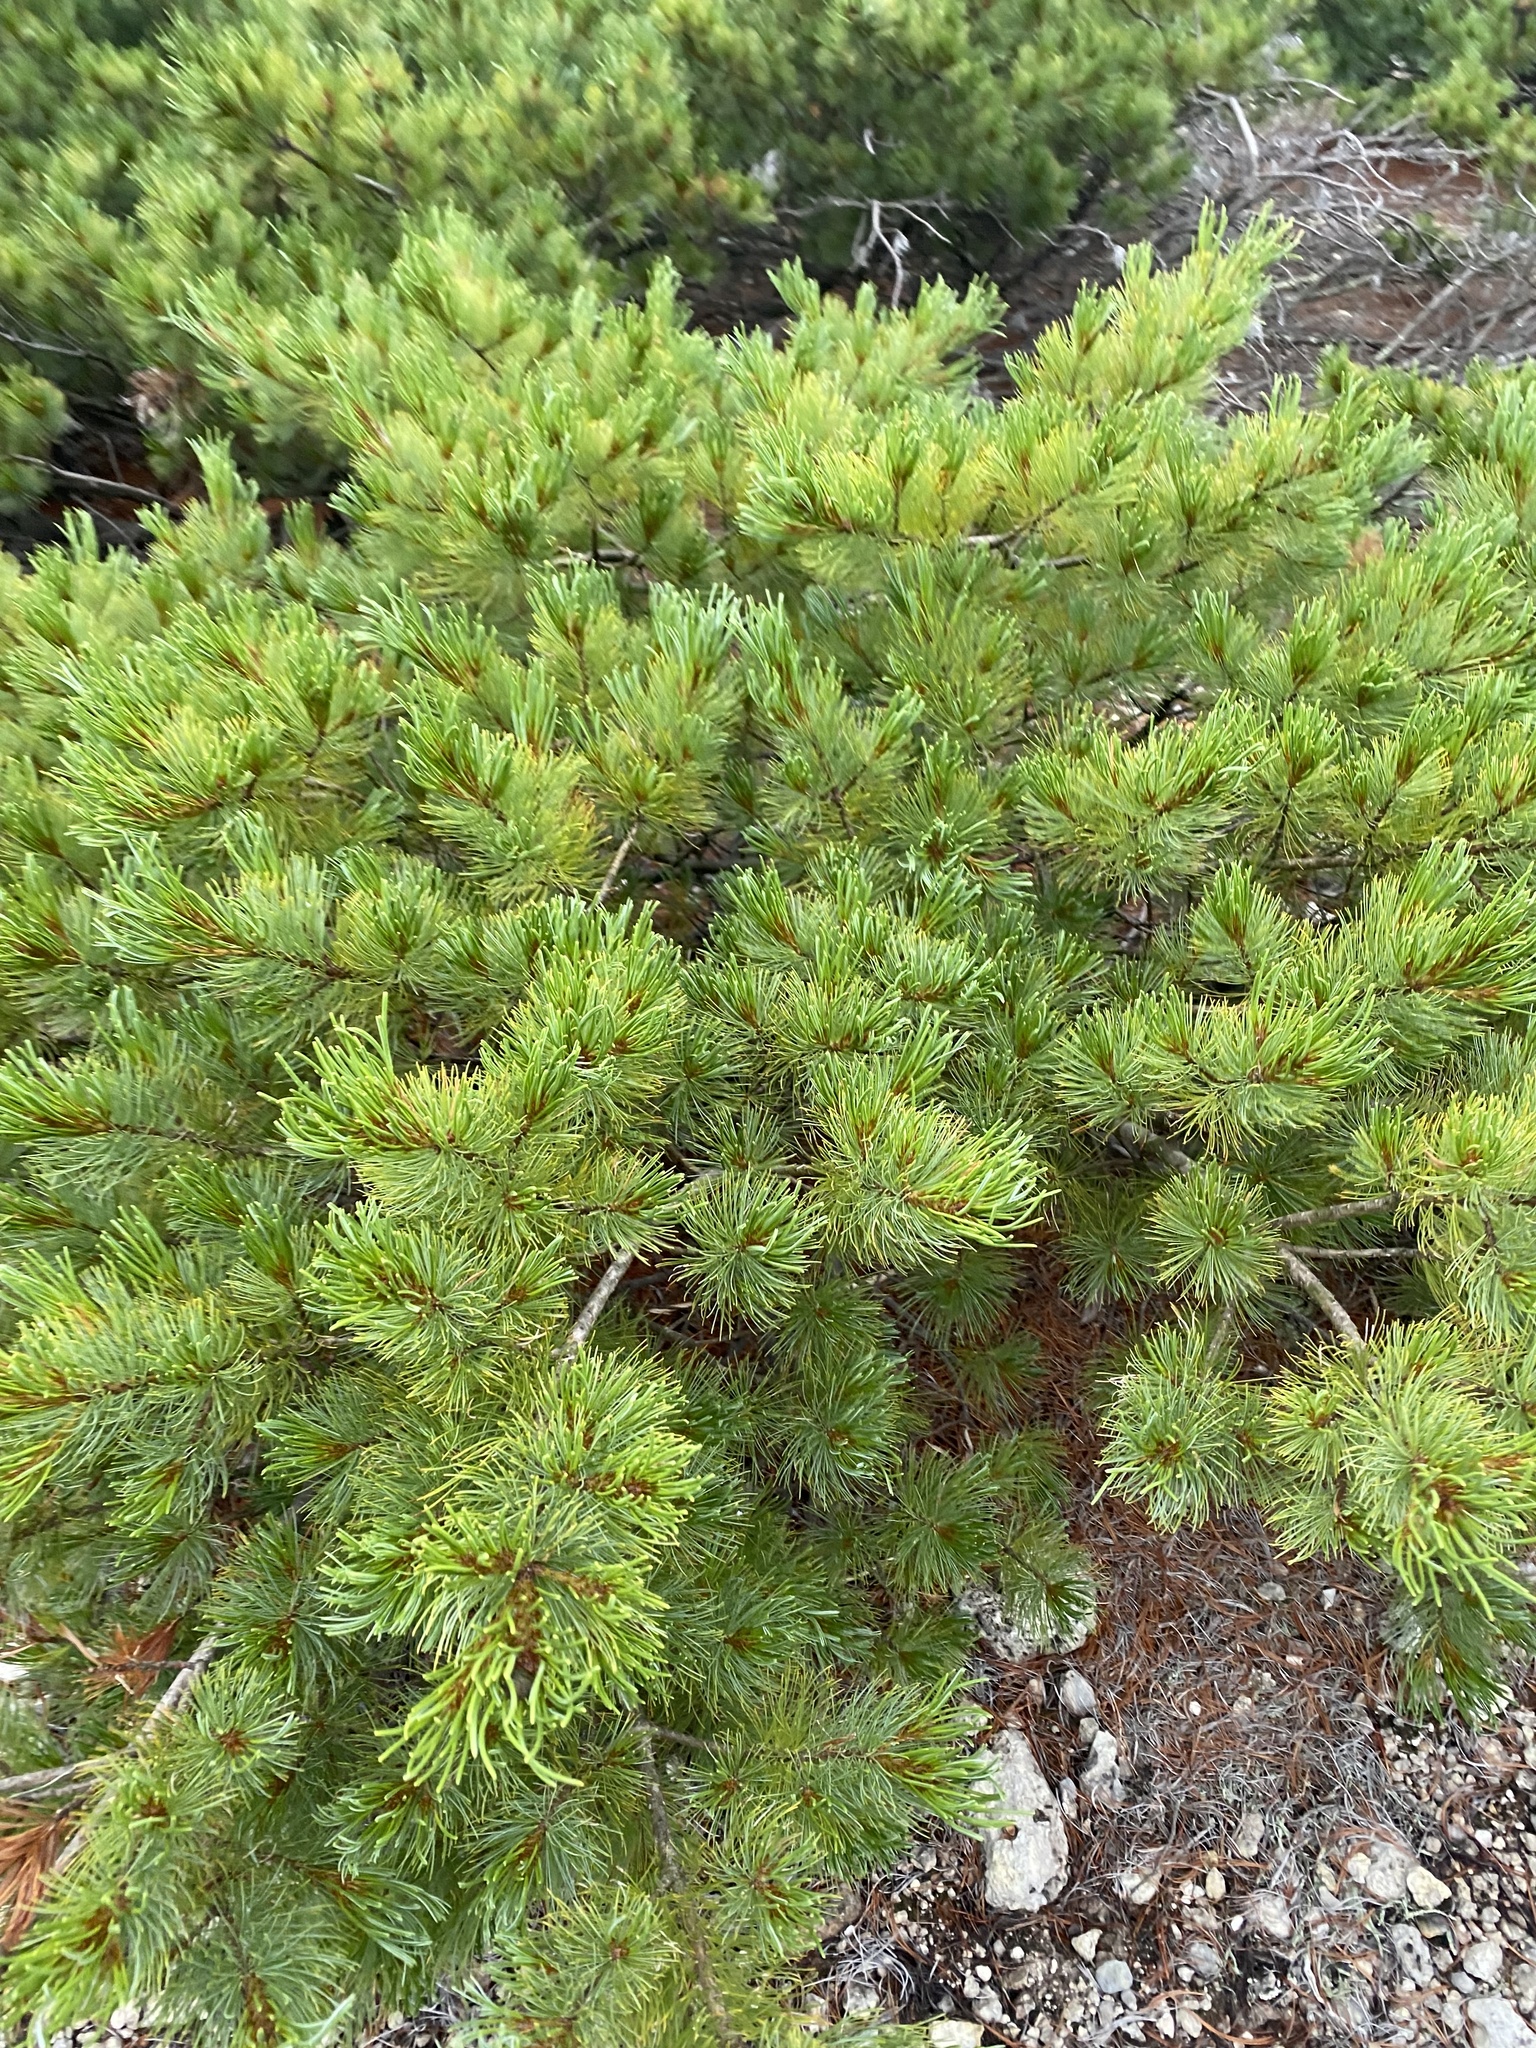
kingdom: Plantae
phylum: Tracheophyta
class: Pinopsida
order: Pinales
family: Pinaceae
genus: Pinus
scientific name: Pinus pumila
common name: Dwarf siberian pine
